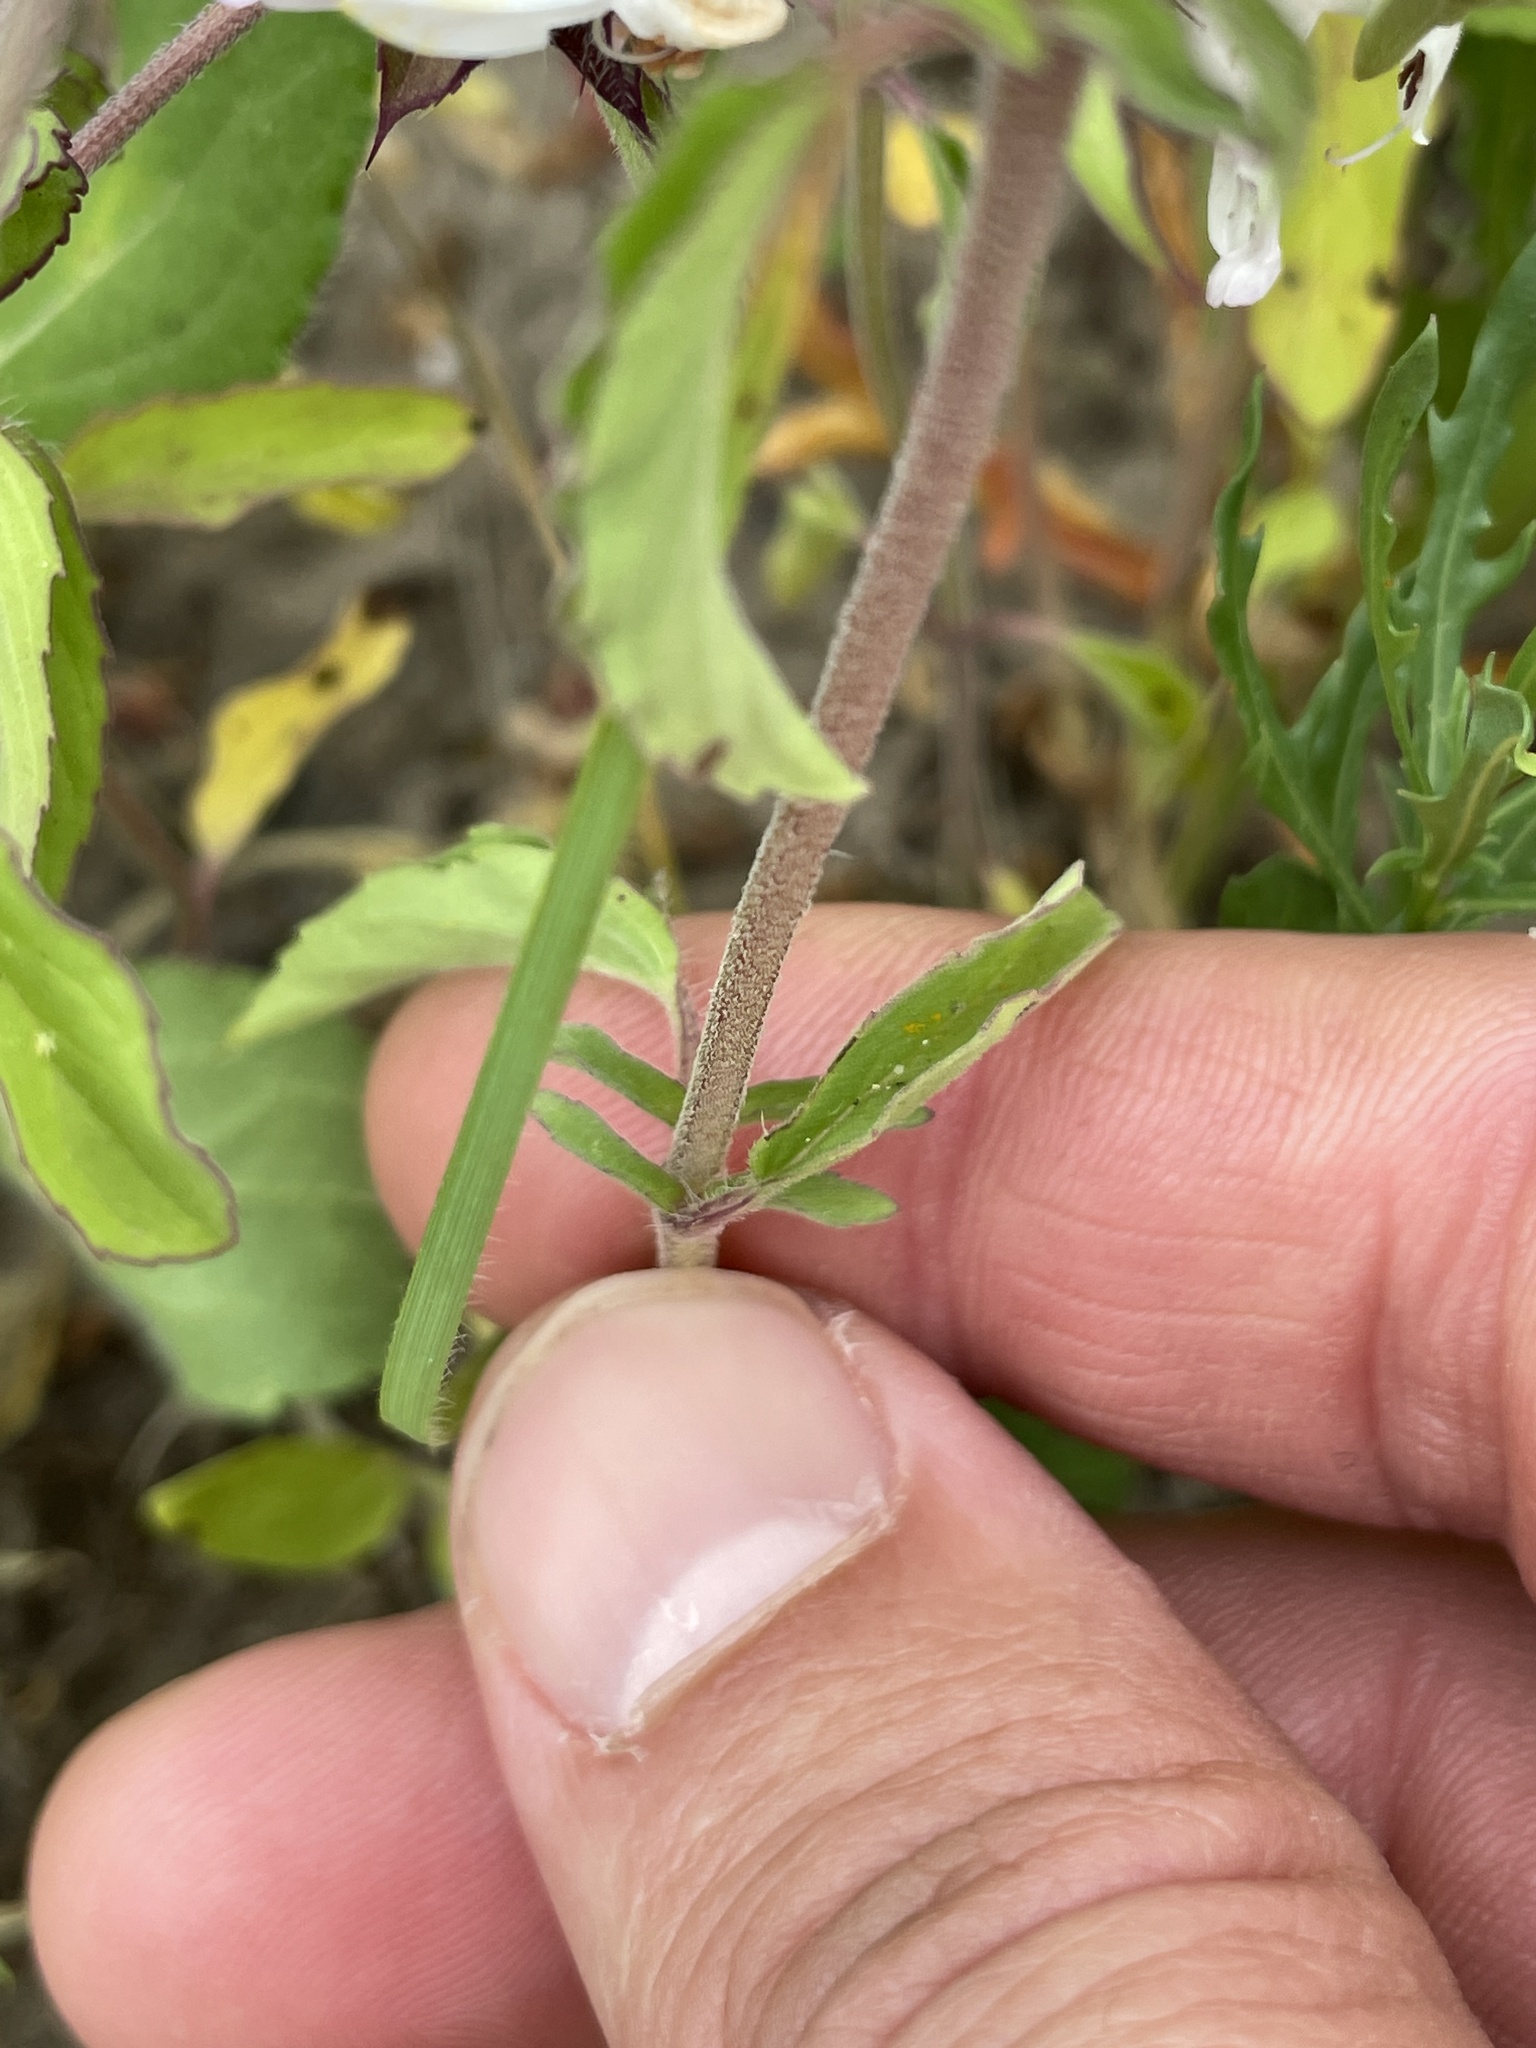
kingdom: Plantae
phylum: Tracheophyta
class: Magnoliopsida
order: Lamiales
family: Lamiaceae
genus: Monarda
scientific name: Monarda clinopodioides
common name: Basil beebalm
